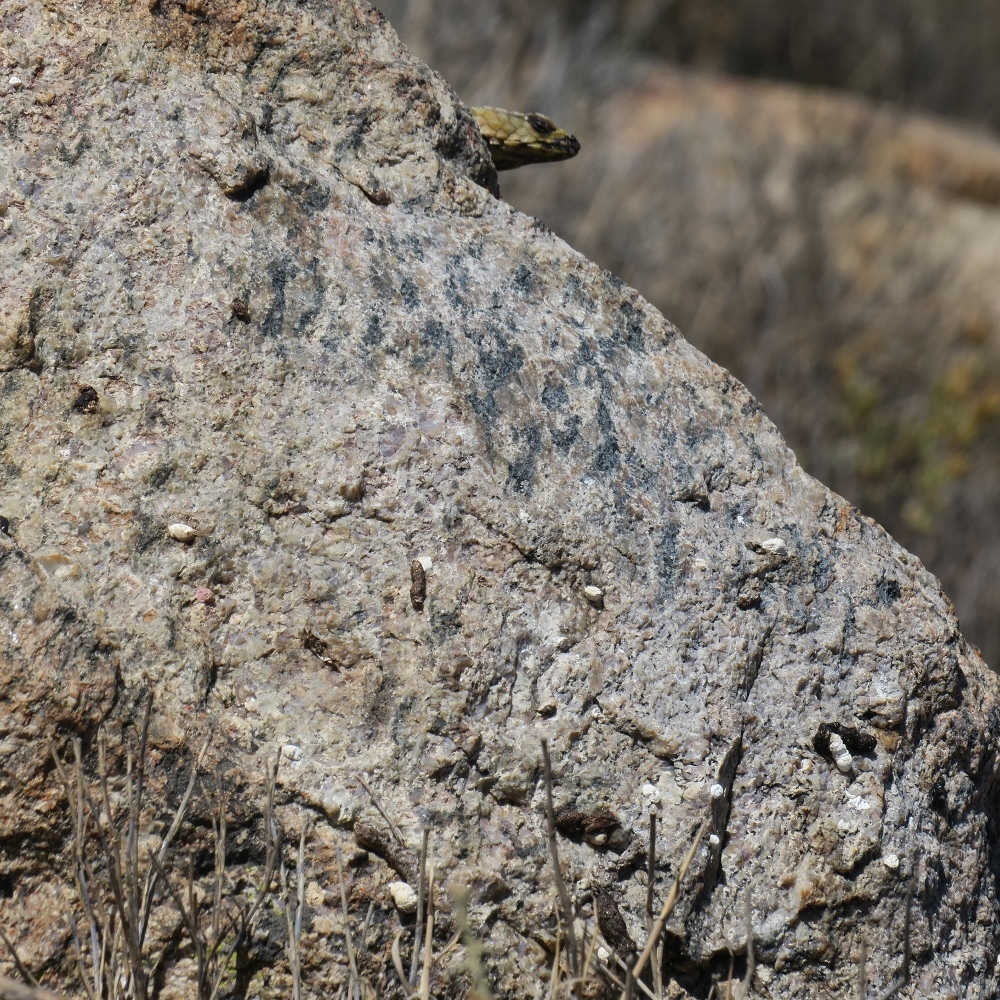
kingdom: Animalia
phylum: Chordata
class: Squamata
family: Cordylidae
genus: Ouroborus
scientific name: Ouroborus cataphractus
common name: Armadillo girdled lizard
